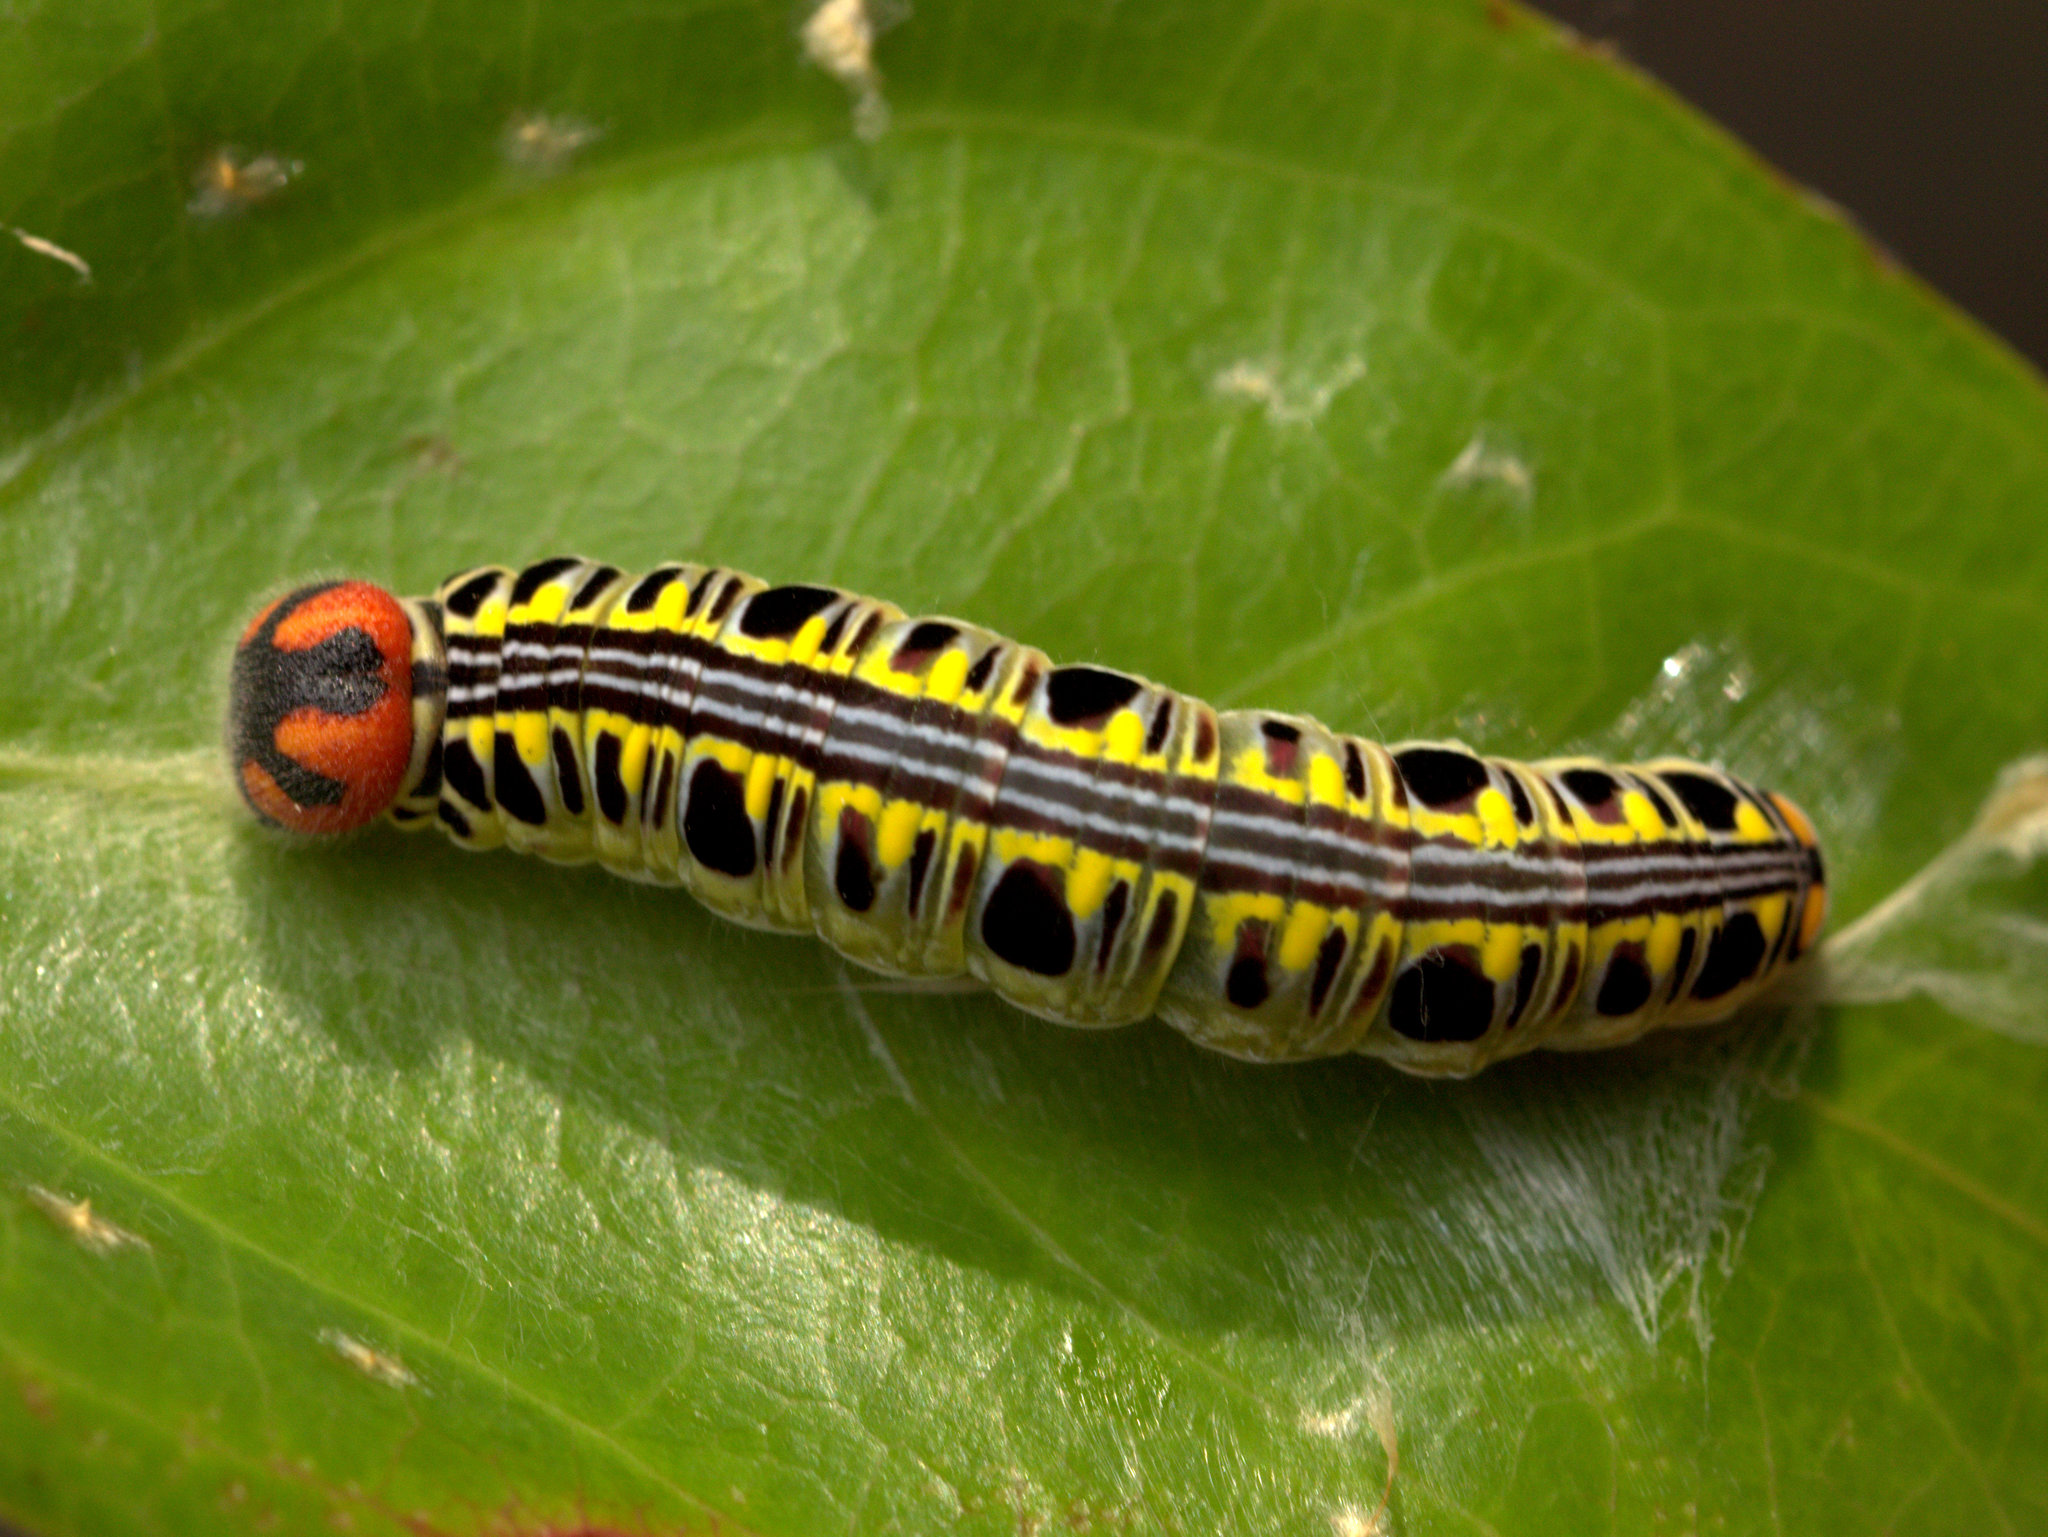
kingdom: Animalia
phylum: Arthropoda
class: Insecta
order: Lepidoptera
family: Hesperiidae
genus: Bibasis
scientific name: Bibasis sena
